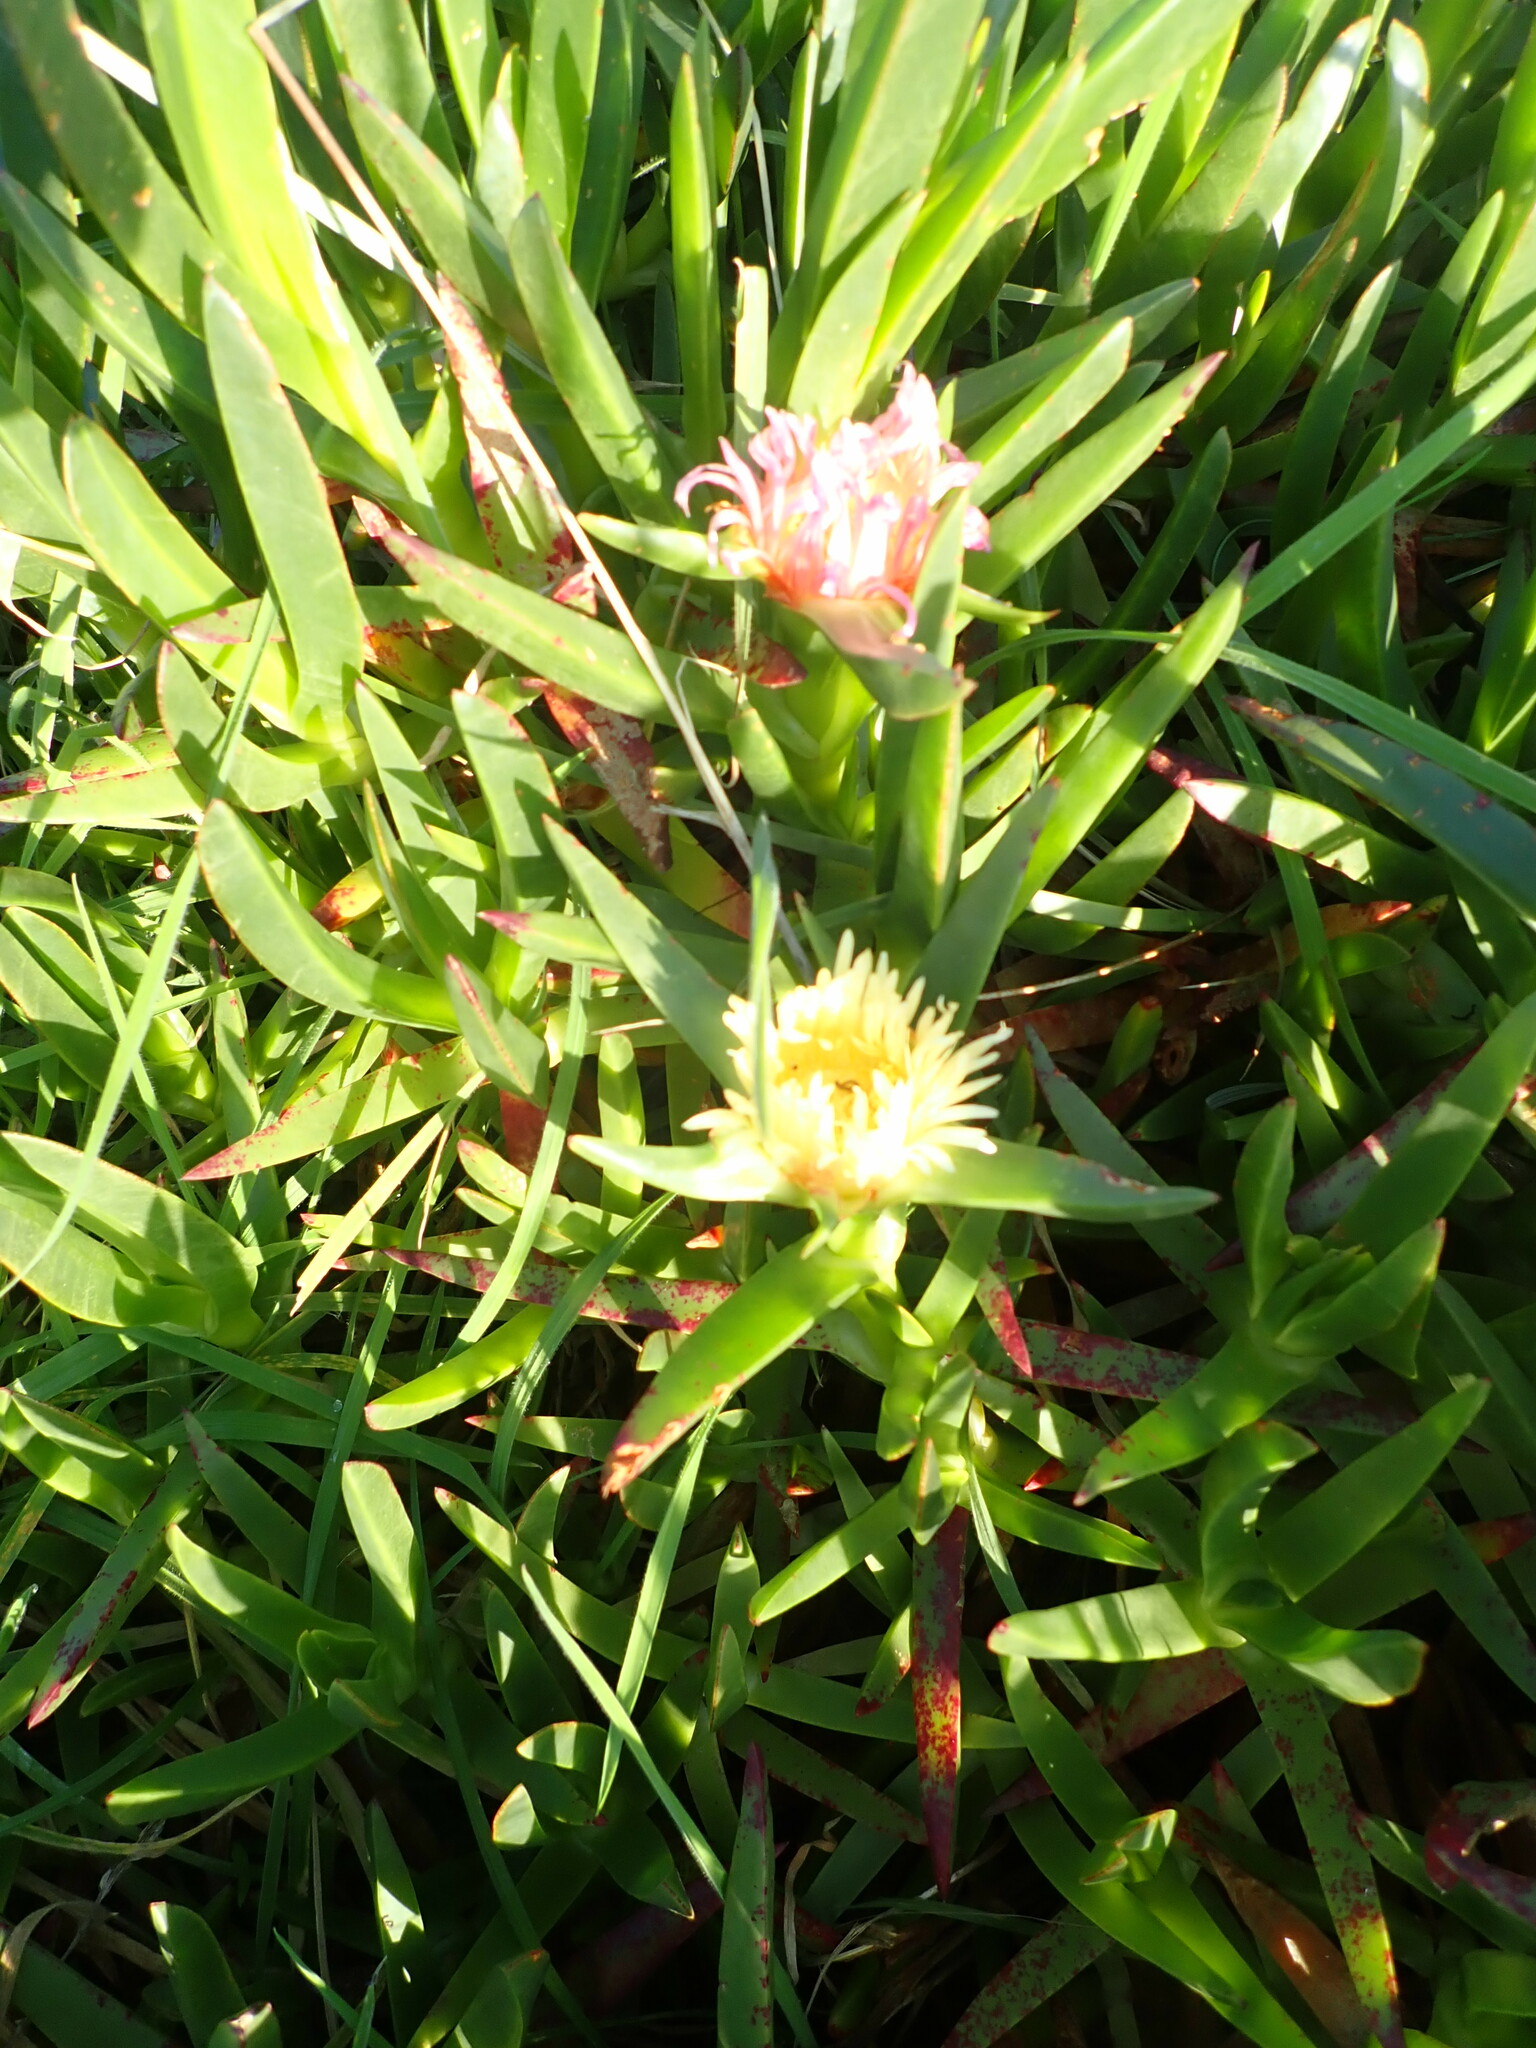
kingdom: Plantae
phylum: Tracheophyta
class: Magnoliopsida
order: Caryophyllales
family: Aizoaceae
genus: Carpobrotus
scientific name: Carpobrotus edulis
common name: Hottentot-fig
